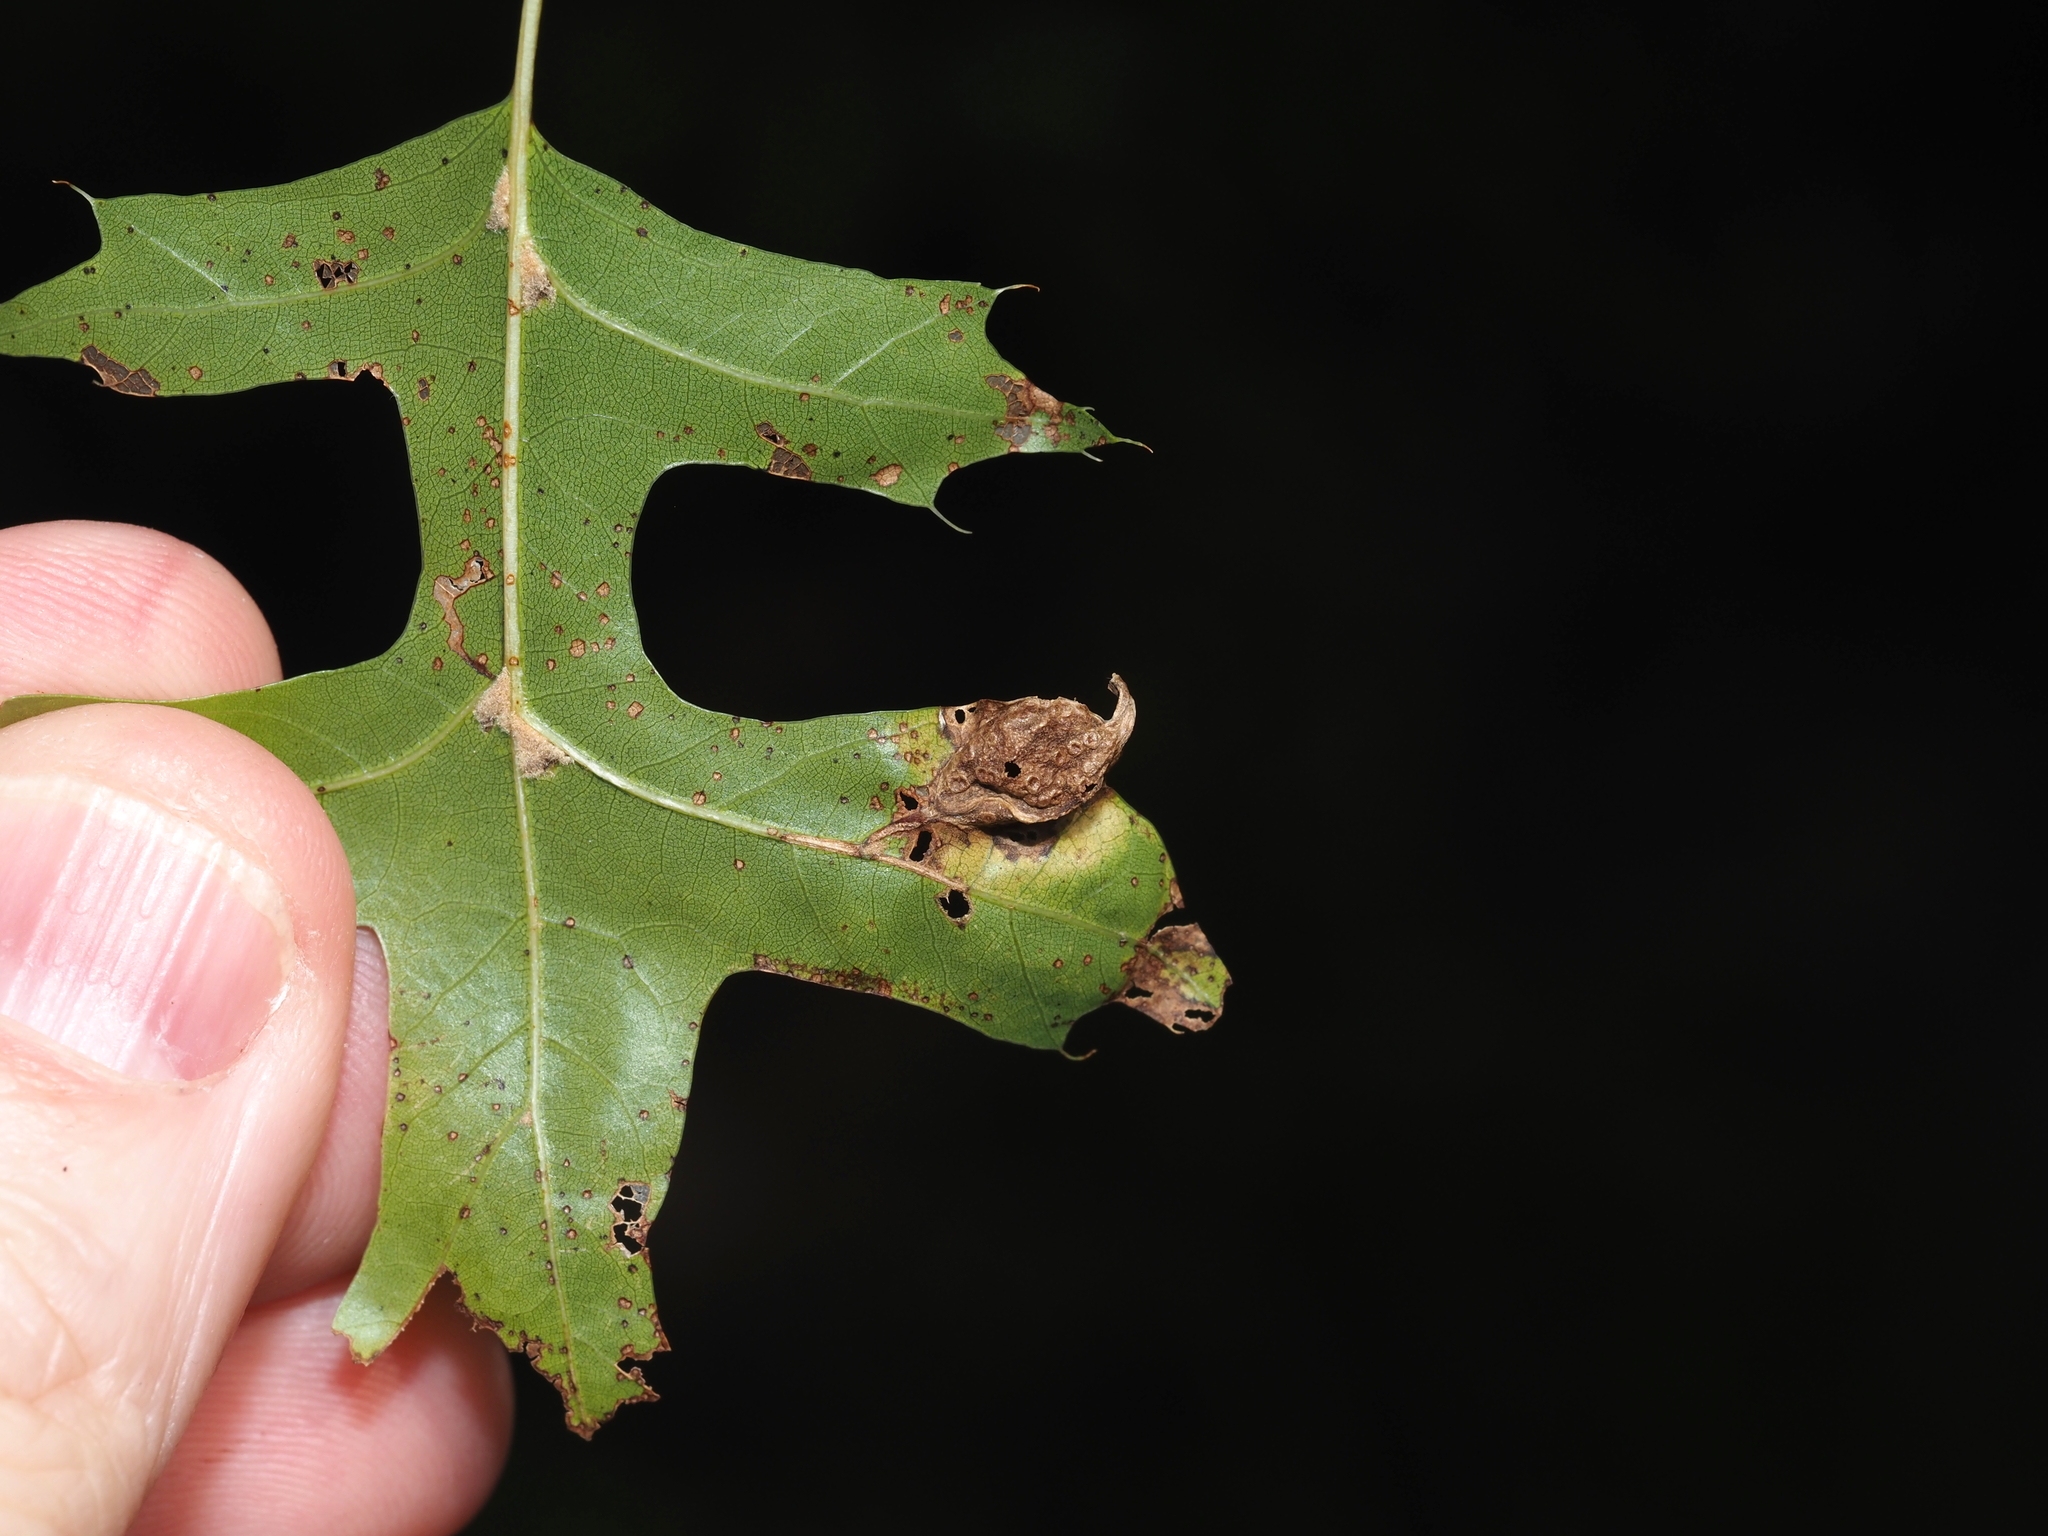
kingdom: Animalia
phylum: Arthropoda
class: Insecta
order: Hymenoptera
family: Cynipidae
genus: Dryocosmus
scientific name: Dryocosmus
